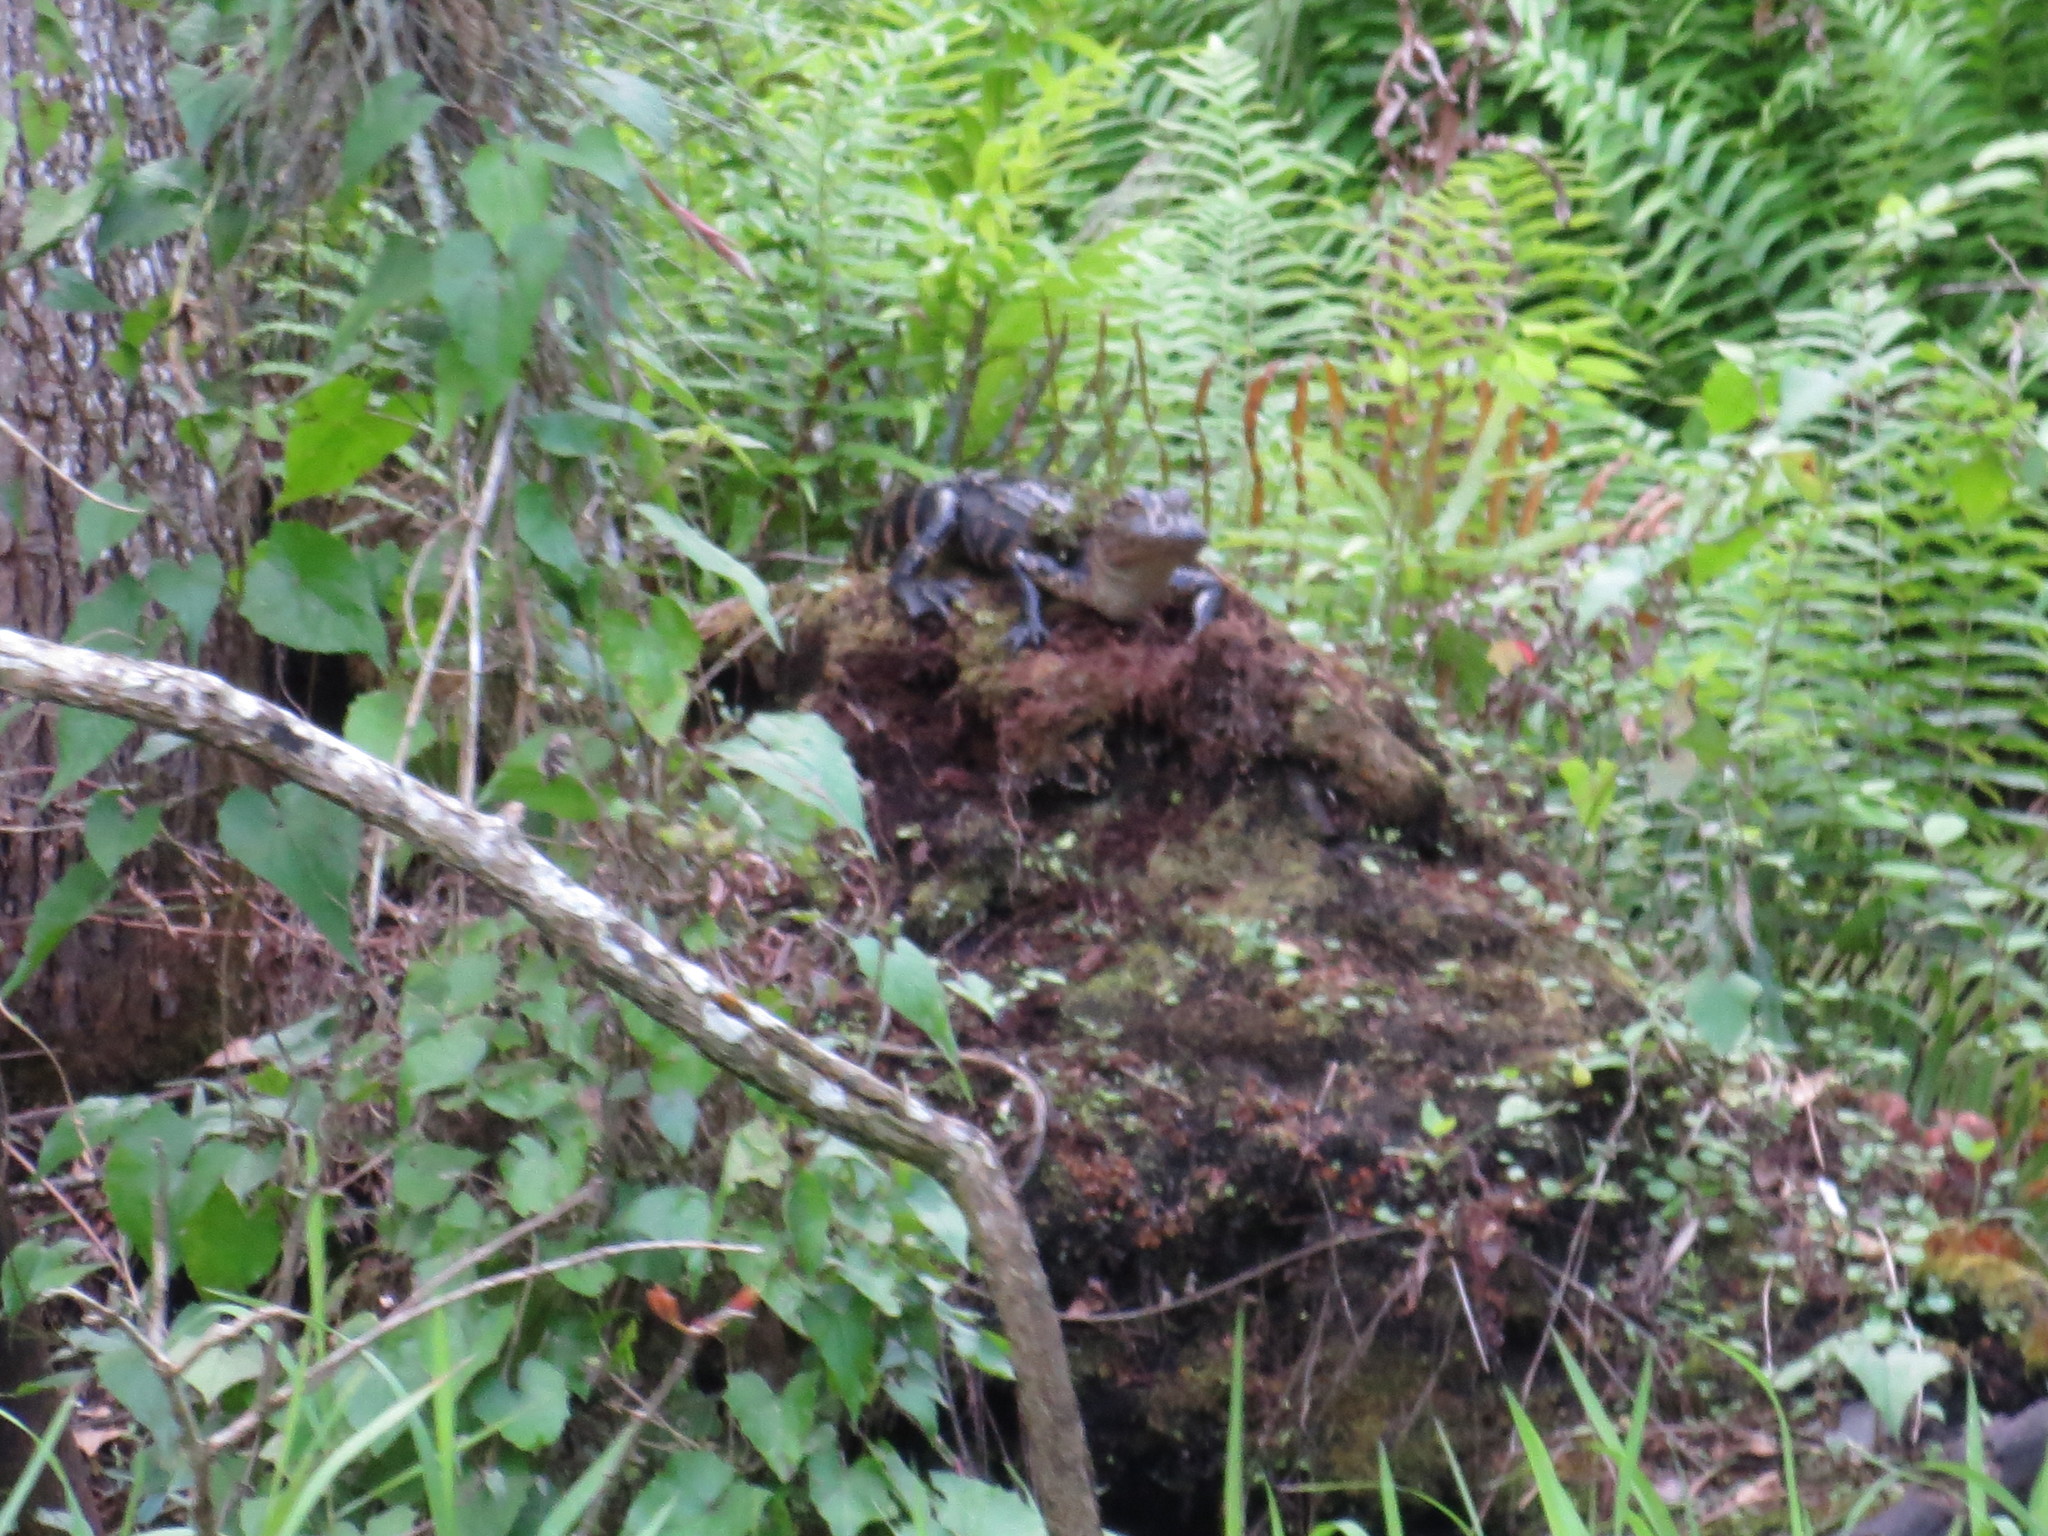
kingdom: Animalia
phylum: Chordata
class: Crocodylia
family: Alligatoridae
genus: Alligator
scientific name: Alligator mississippiensis
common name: American alligator
